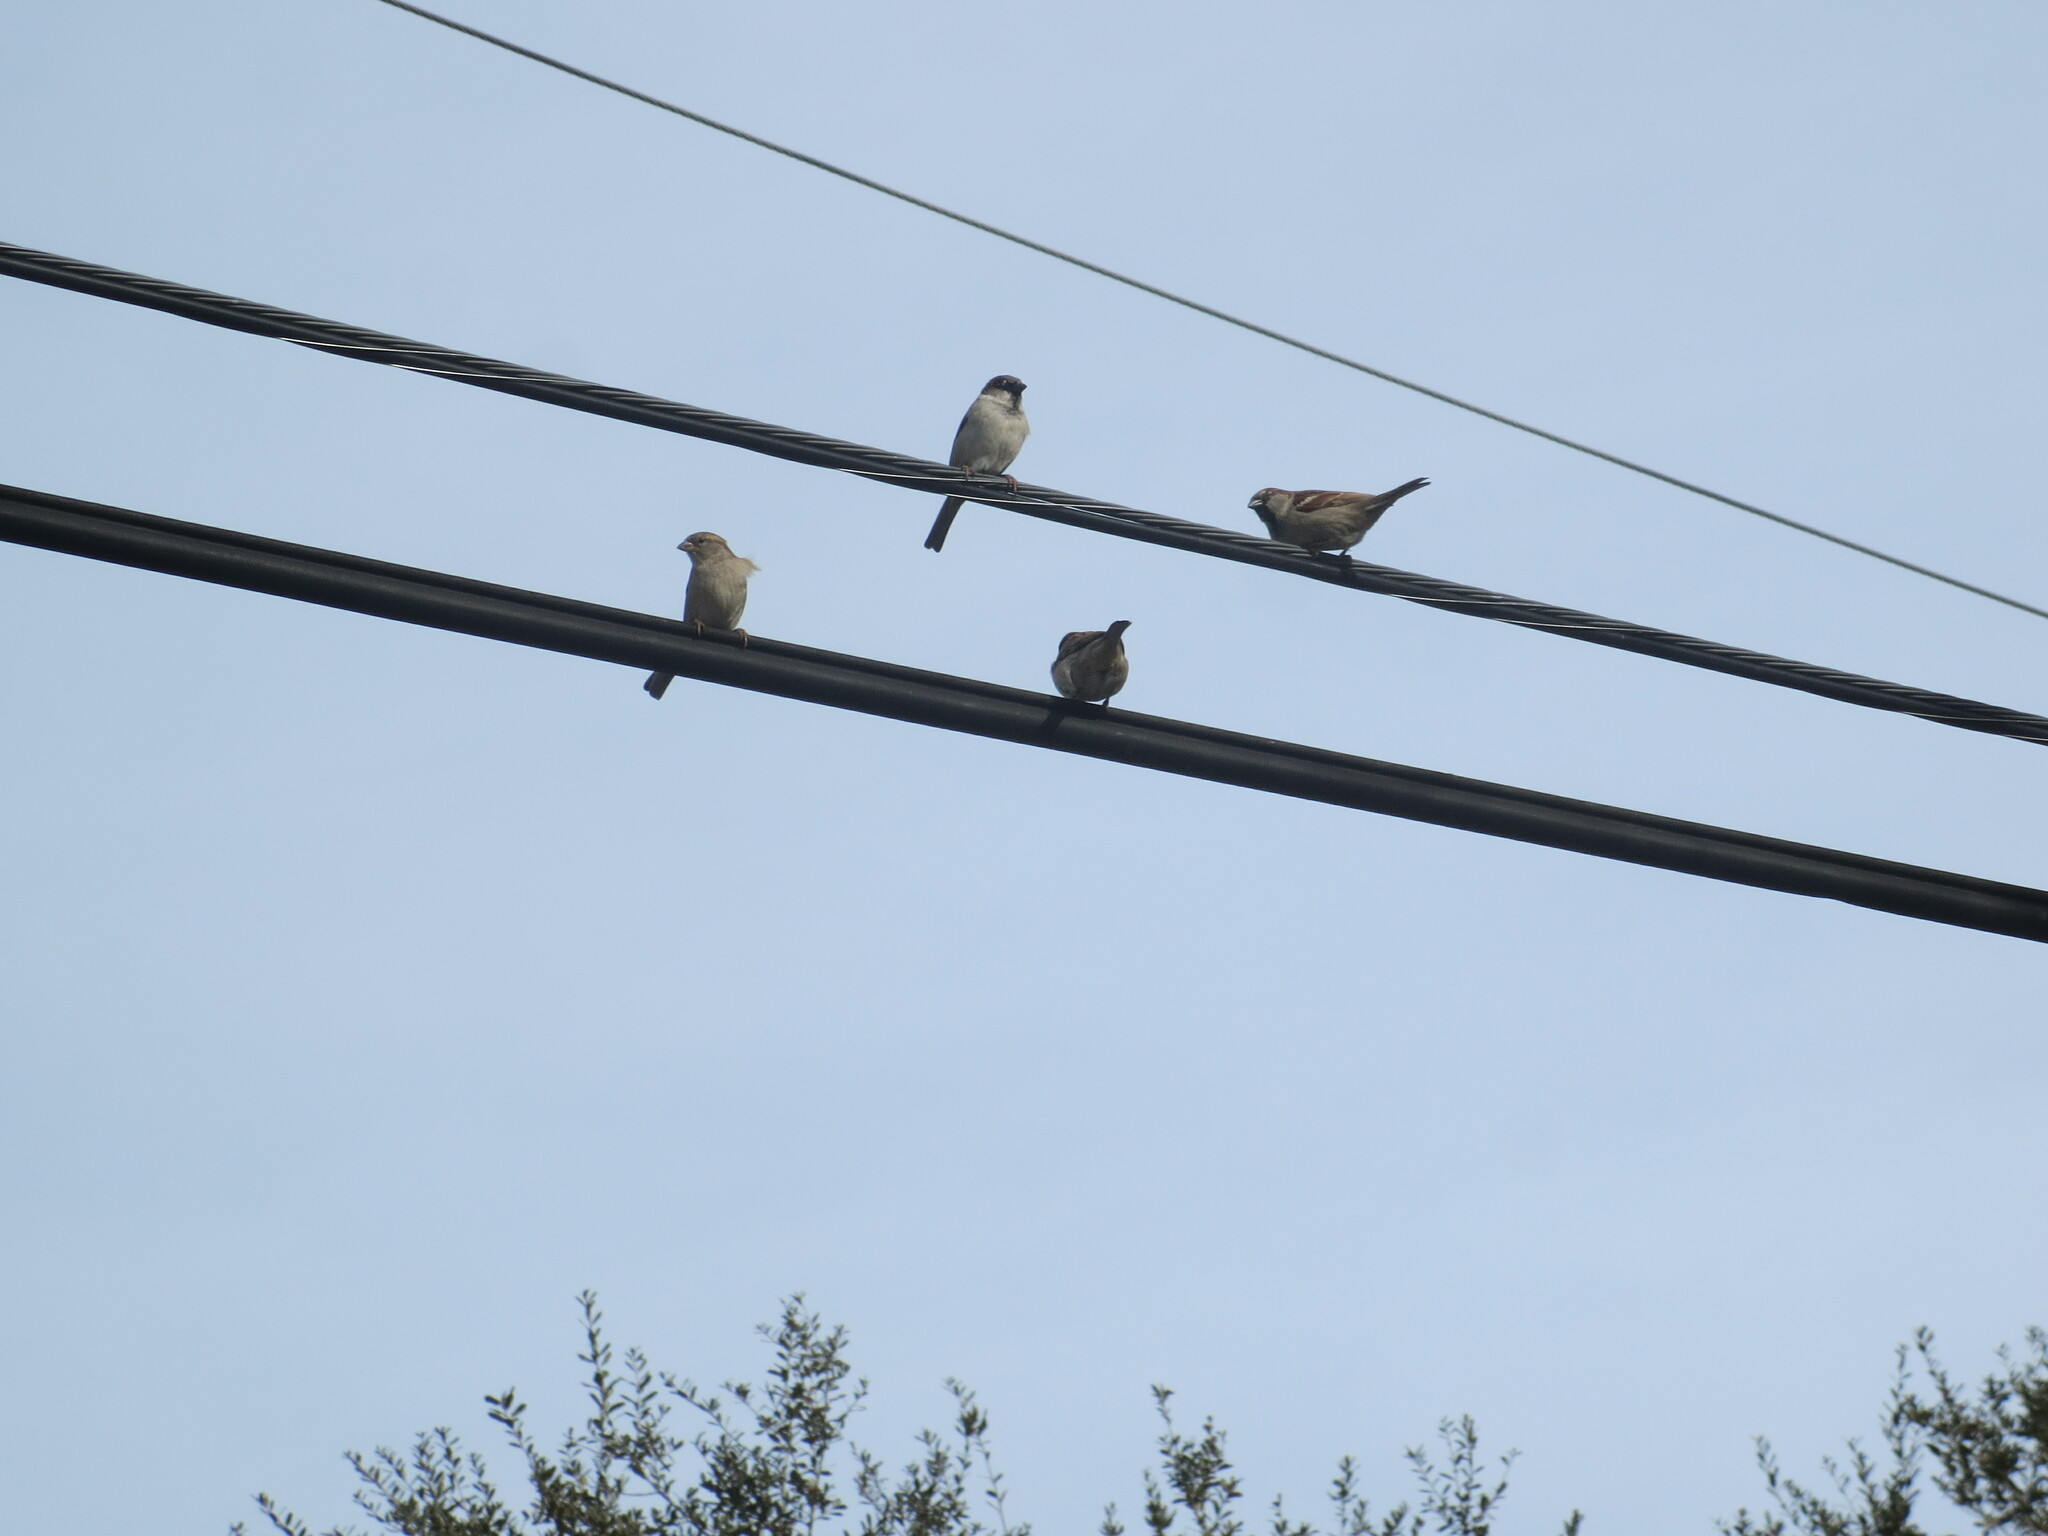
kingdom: Animalia
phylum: Chordata
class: Aves
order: Passeriformes
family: Passeridae
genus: Passer
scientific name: Passer domesticus
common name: House sparrow
